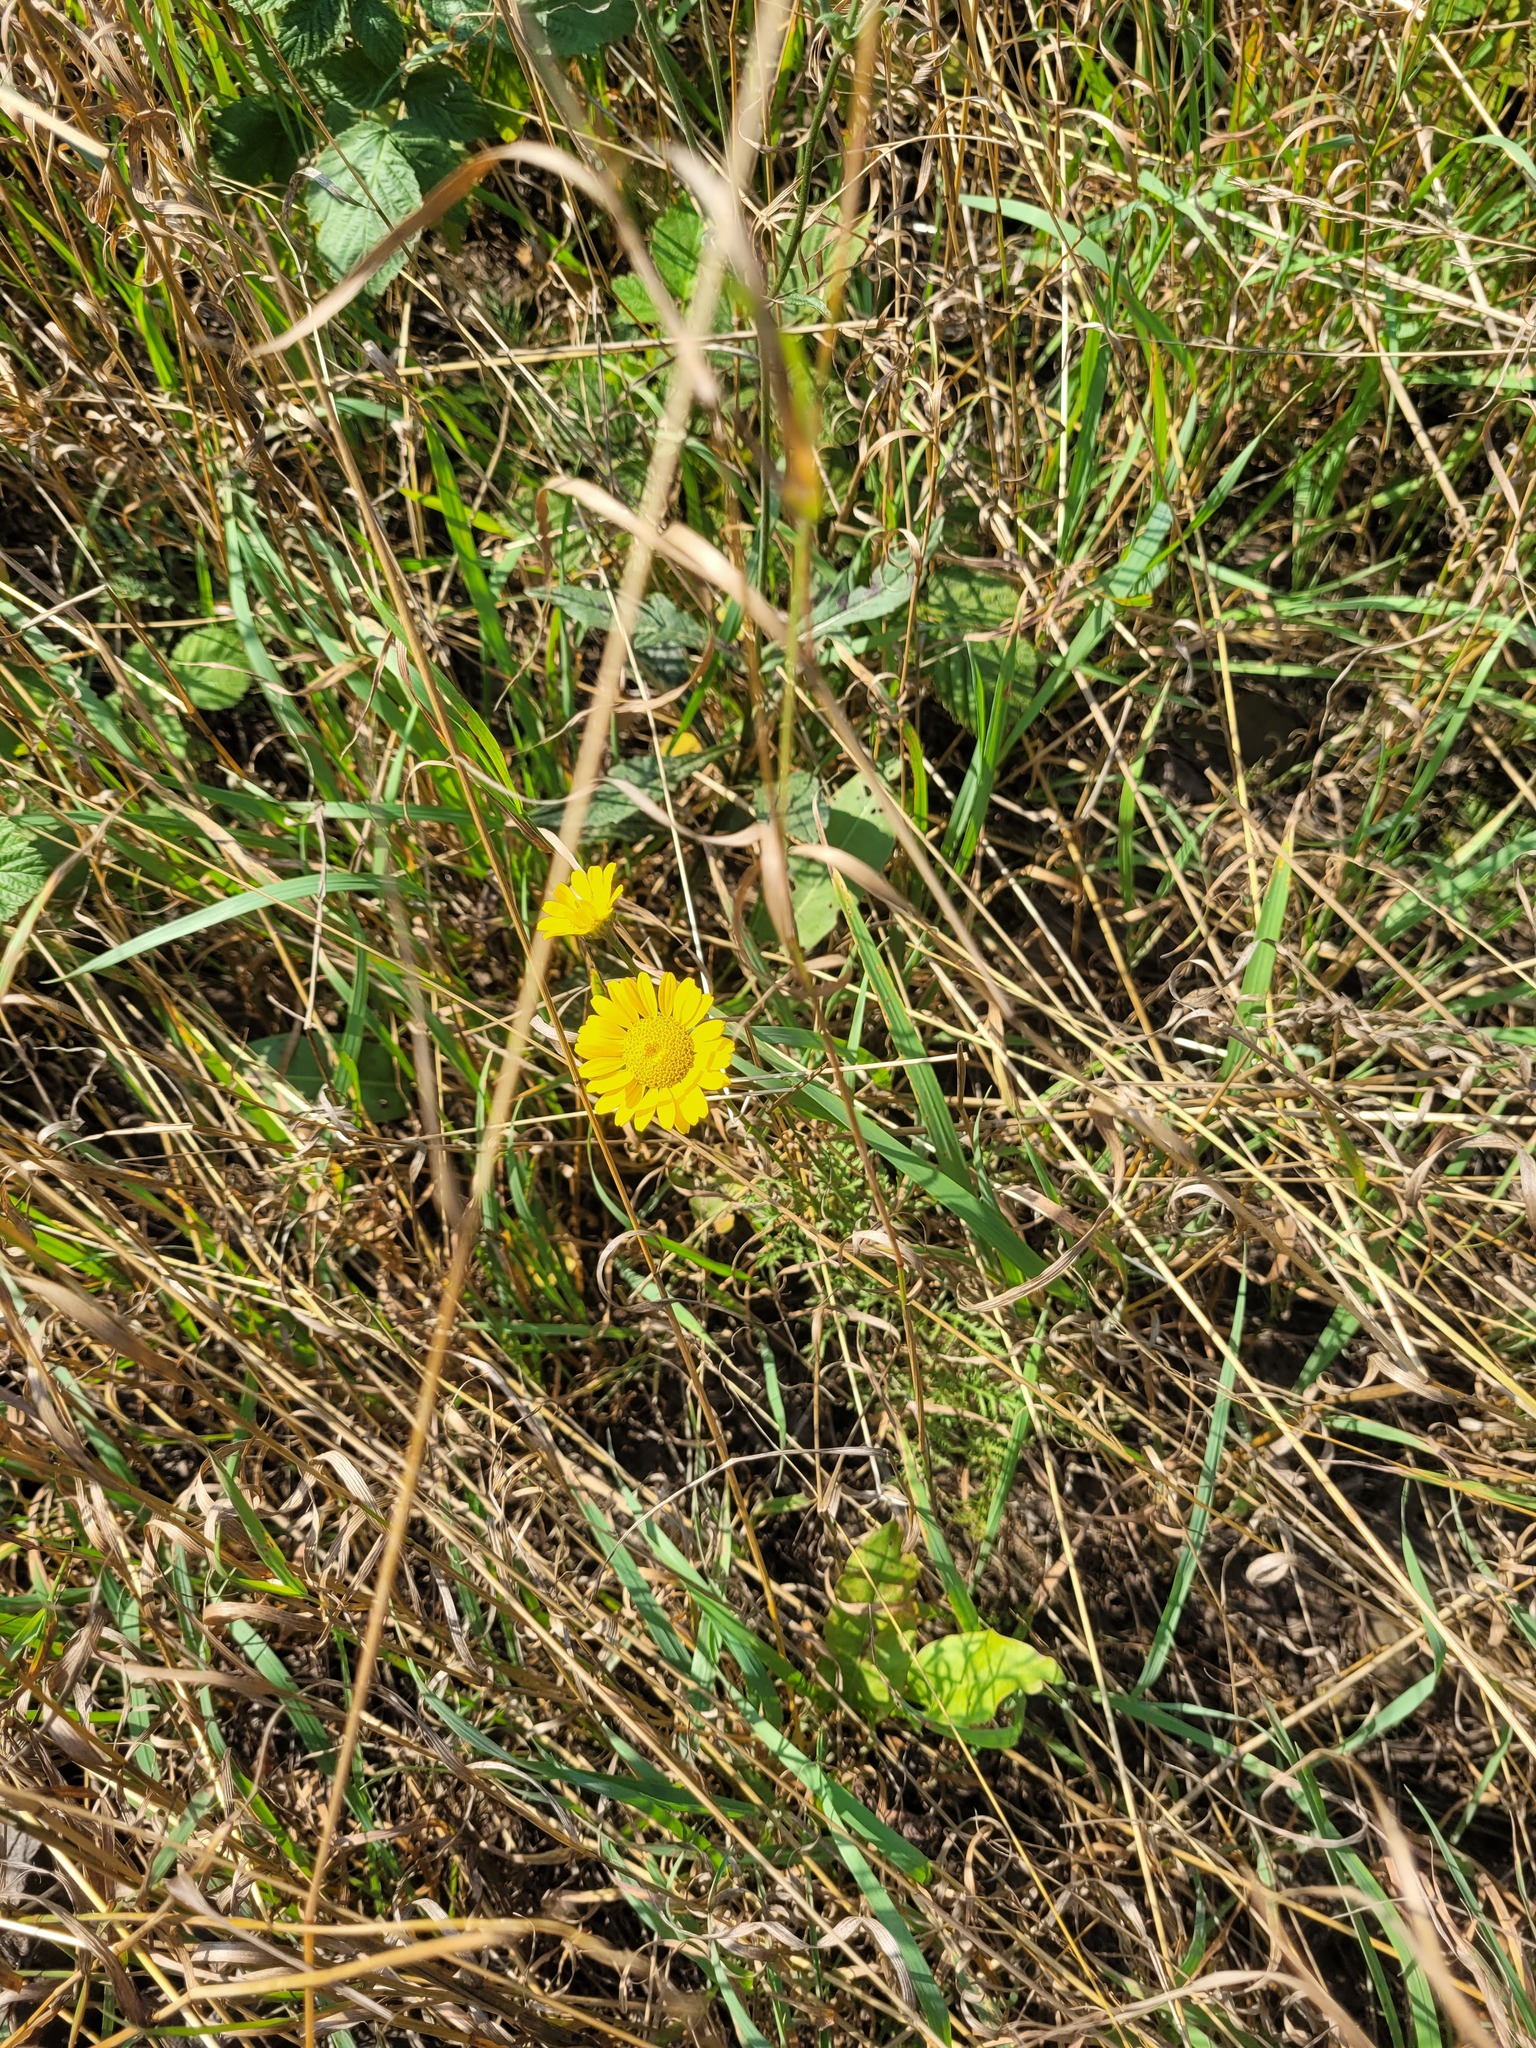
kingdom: Plantae
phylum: Tracheophyta
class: Magnoliopsida
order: Asterales
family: Asteraceae
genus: Cota
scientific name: Cota tinctoria
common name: Golden chamomile
